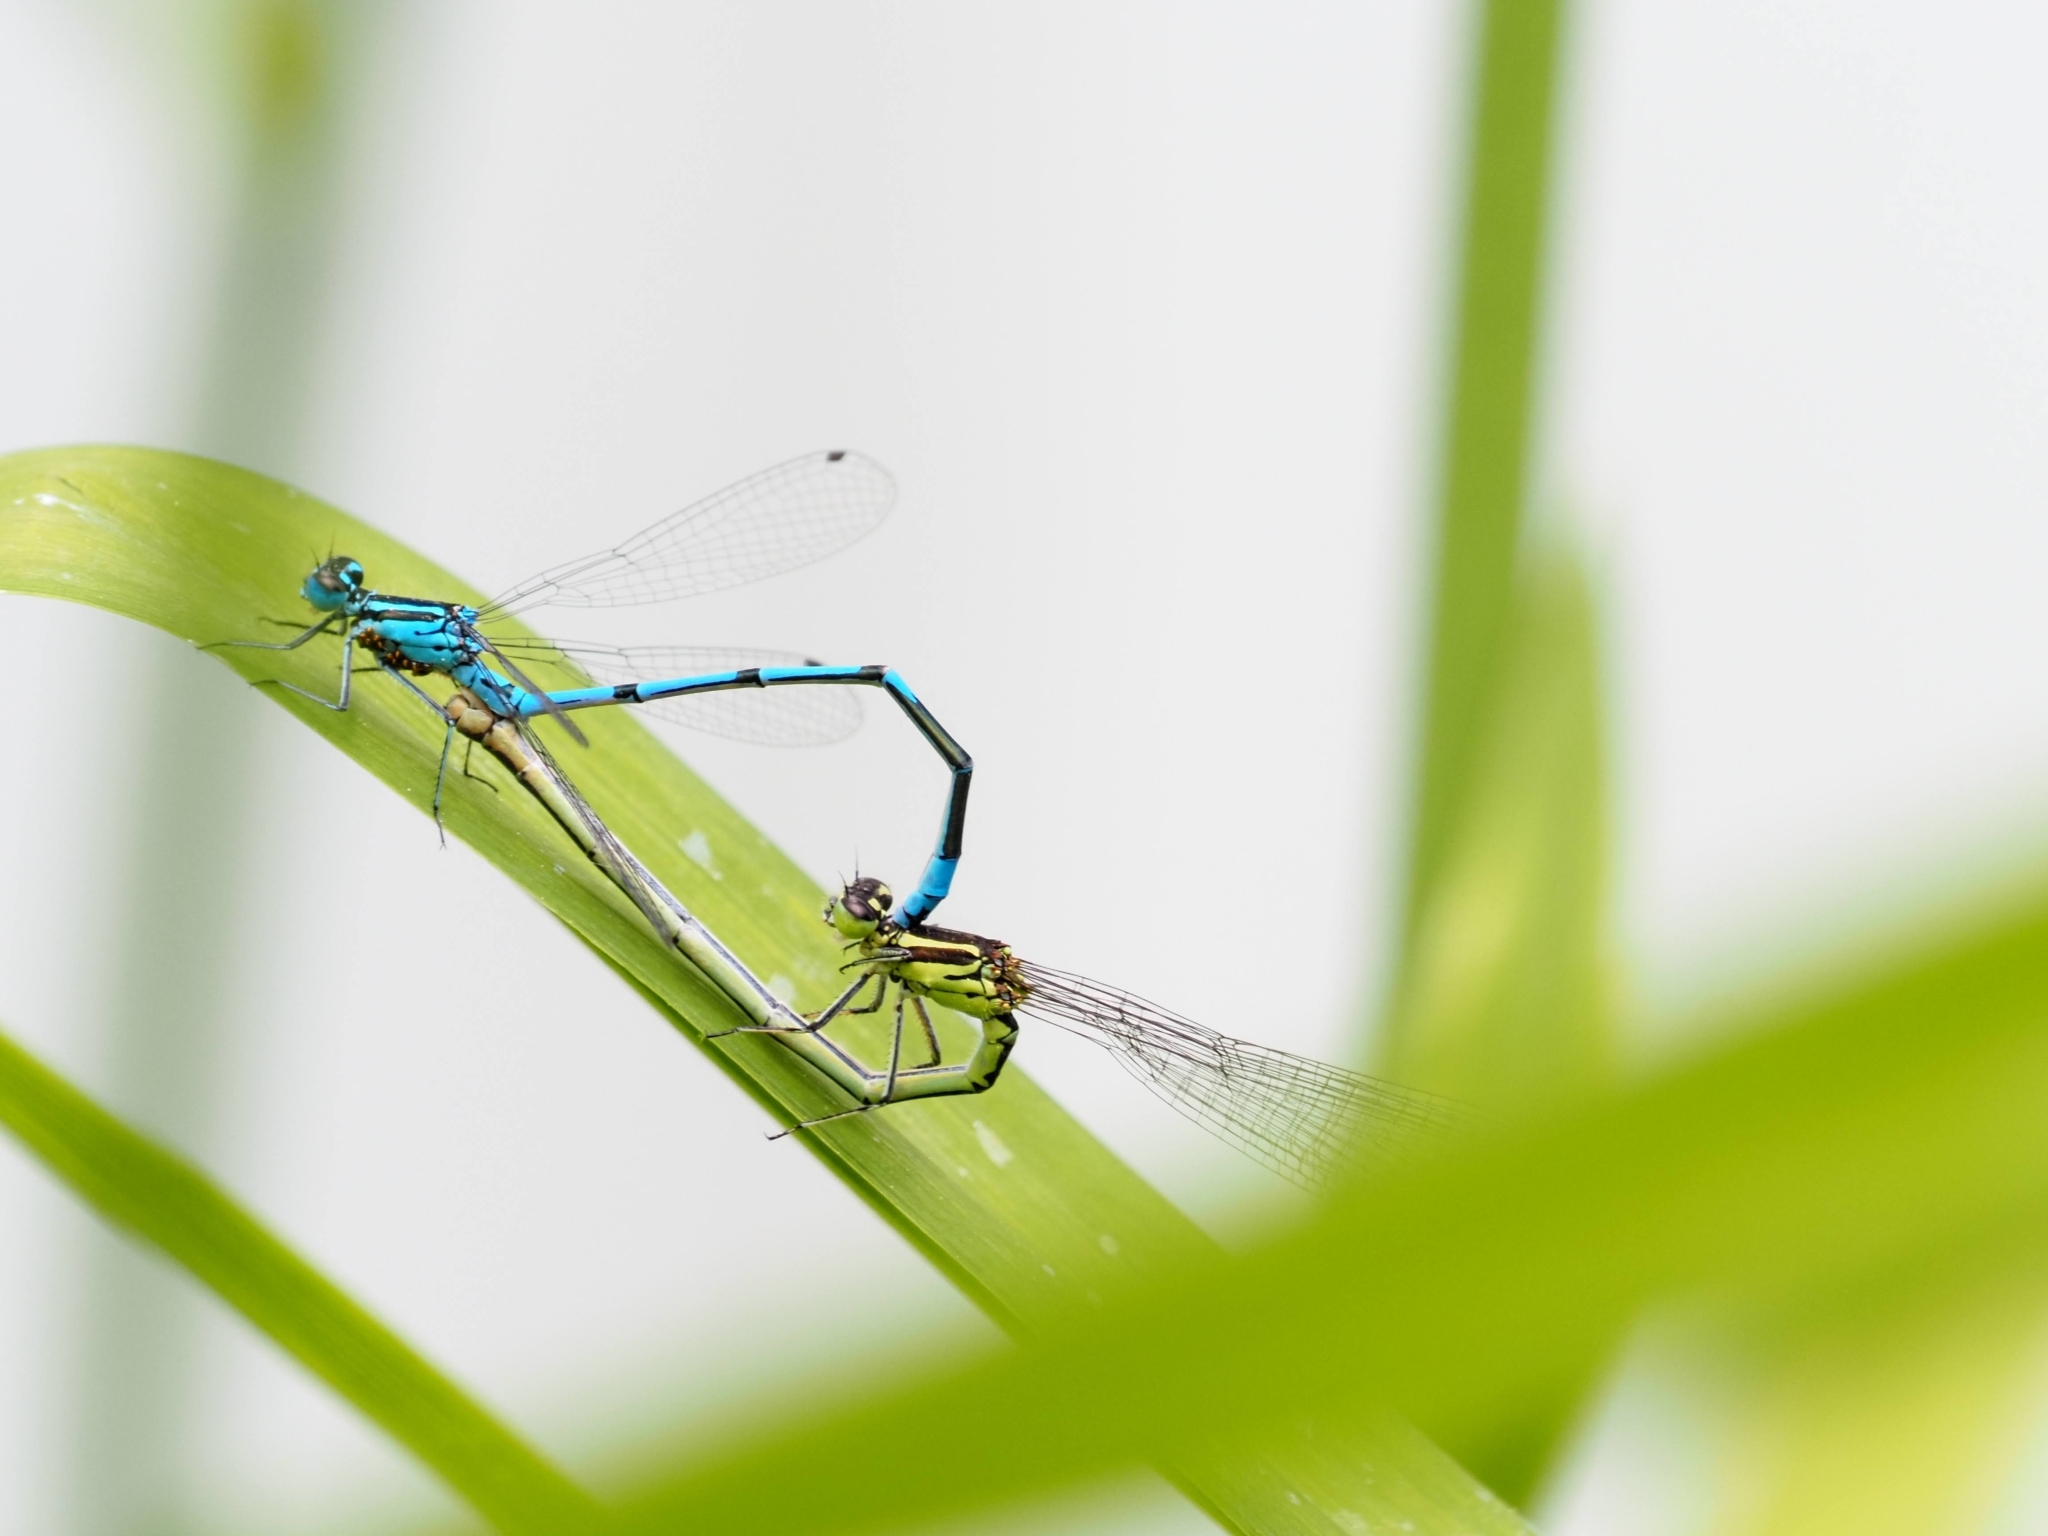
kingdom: Animalia
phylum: Arthropoda
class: Insecta
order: Odonata
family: Coenagrionidae
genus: Coenagrion
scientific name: Coenagrion puella
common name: Azure damselfly
